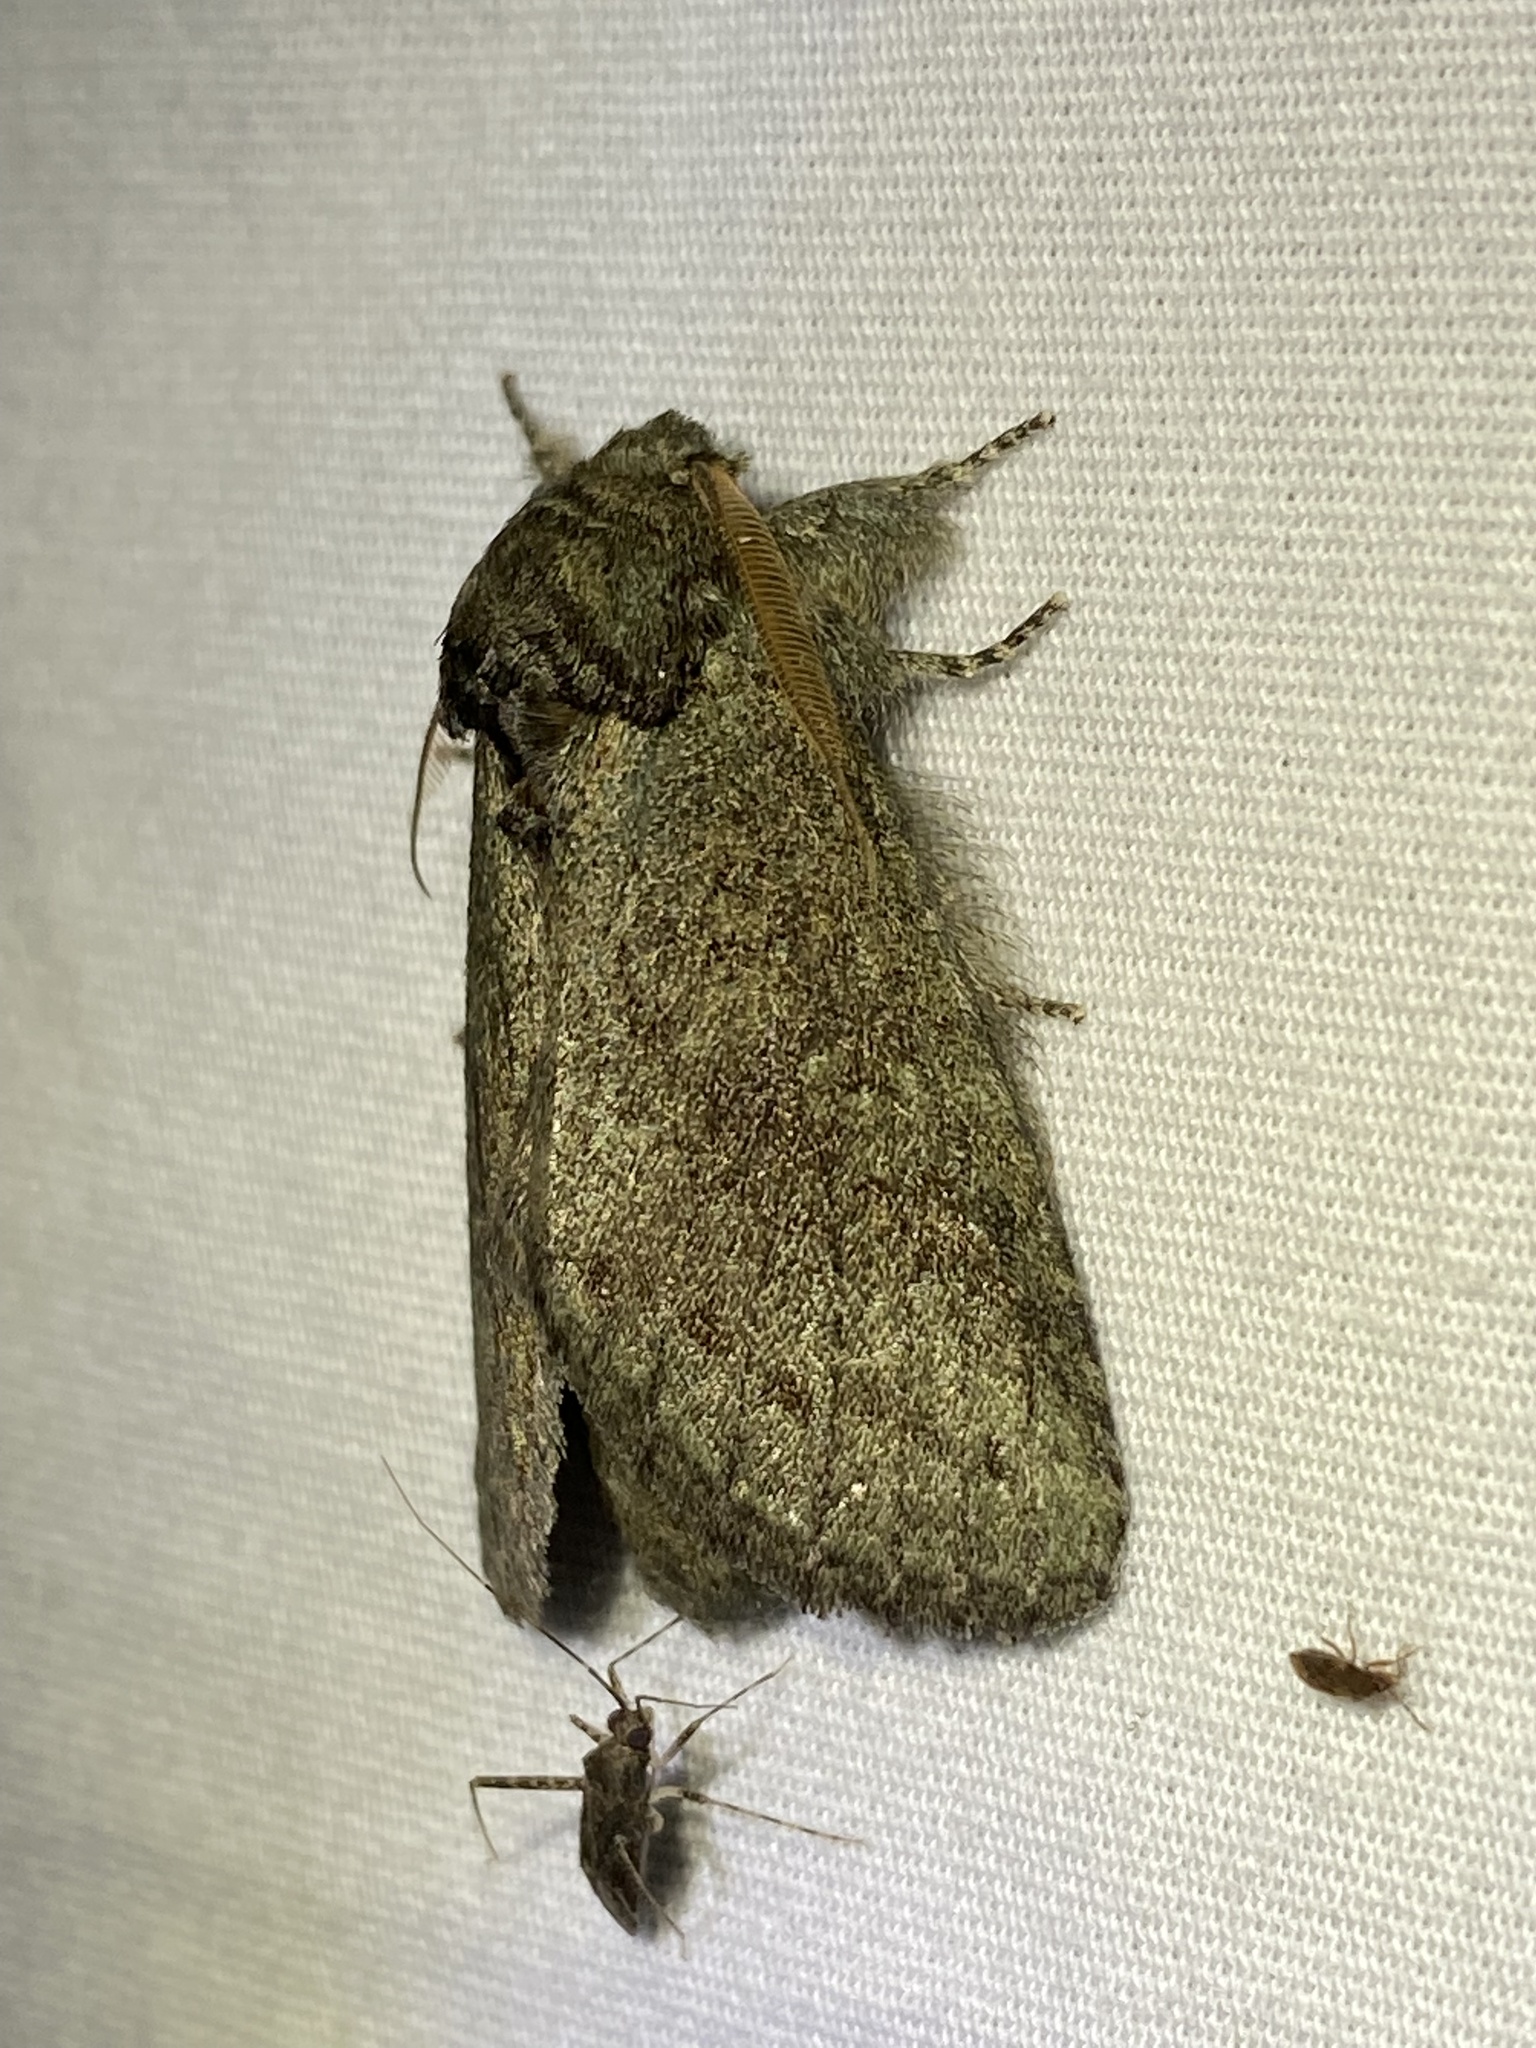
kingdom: Animalia
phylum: Arthropoda
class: Insecta
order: Lepidoptera
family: Notodontidae
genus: Disphragis
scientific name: Disphragis Cecrita guttivitta
